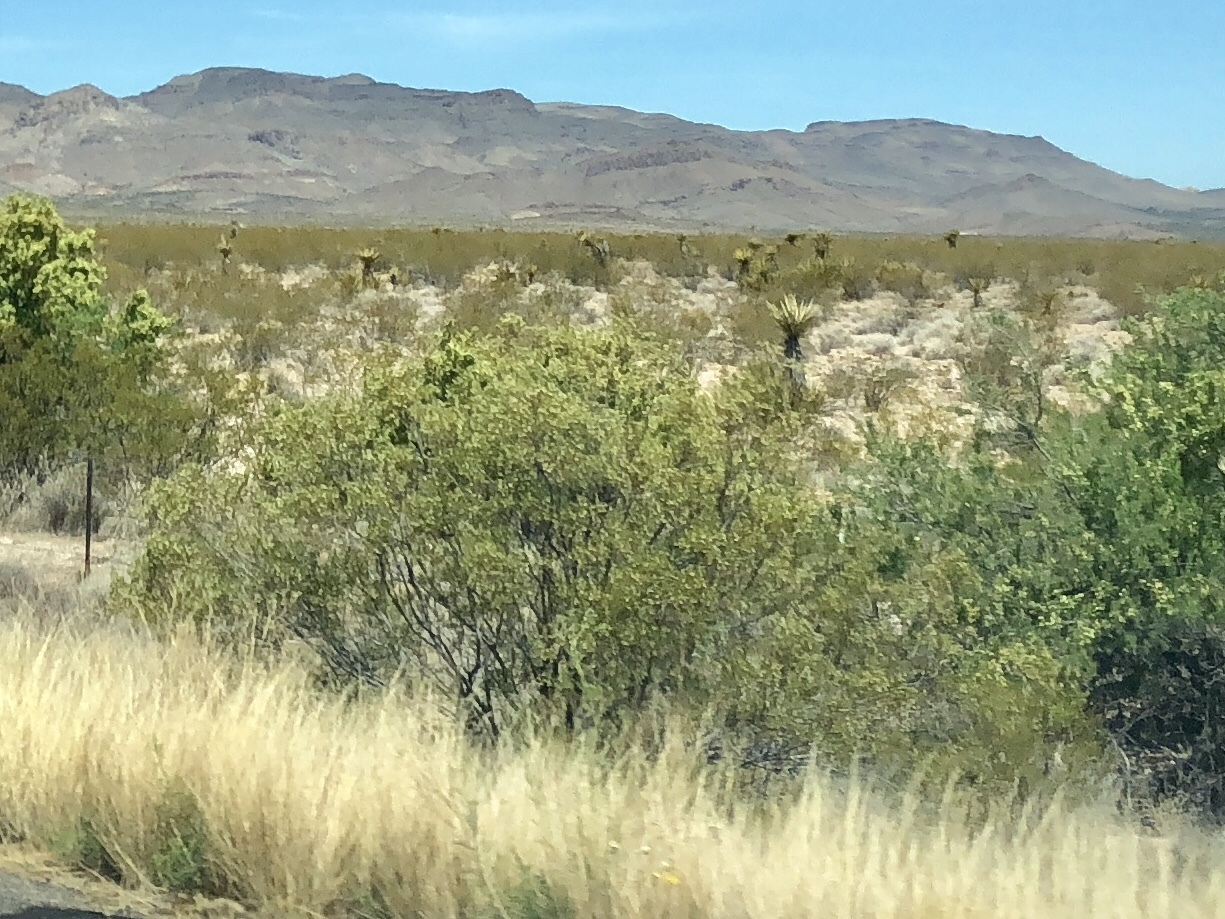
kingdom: Plantae
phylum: Tracheophyta
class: Magnoliopsida
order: Zygophyllales
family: Zygophyllaceae
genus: Larrea
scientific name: Larrea tridentata
